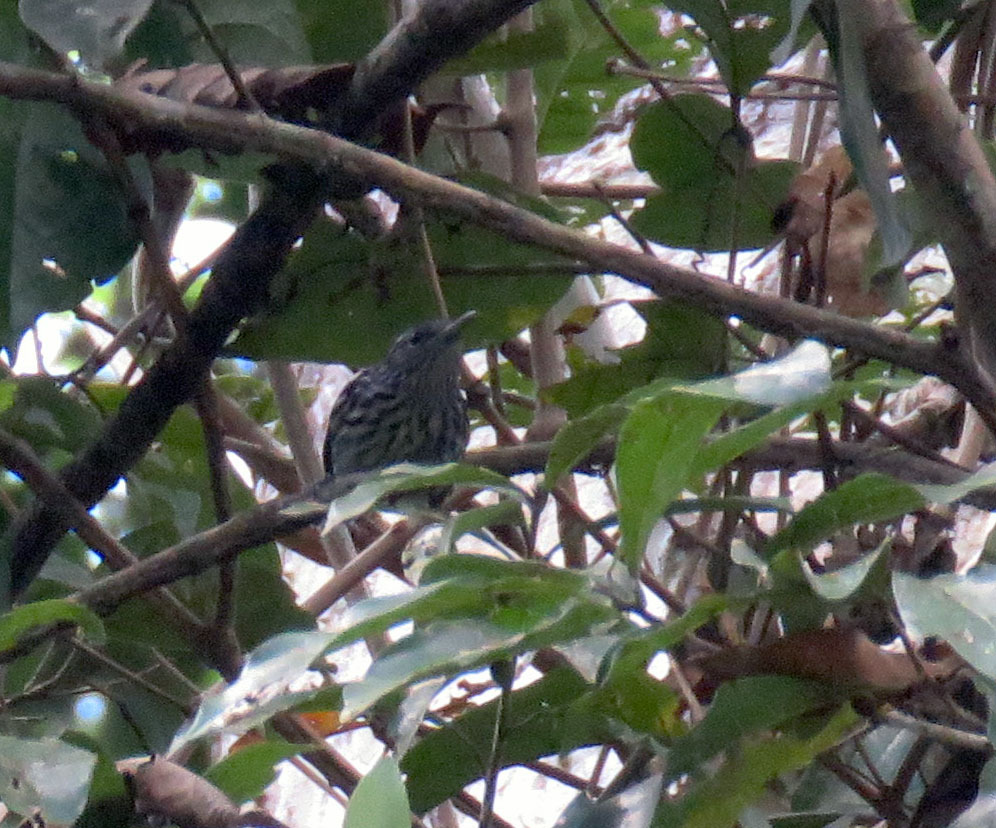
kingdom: Animalia
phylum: Chordata
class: Aves
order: Passeriformes
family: Thamnophilidae
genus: Myrmotherula
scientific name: Myrmotherula multostriata
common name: Amazonian streaked antwren
